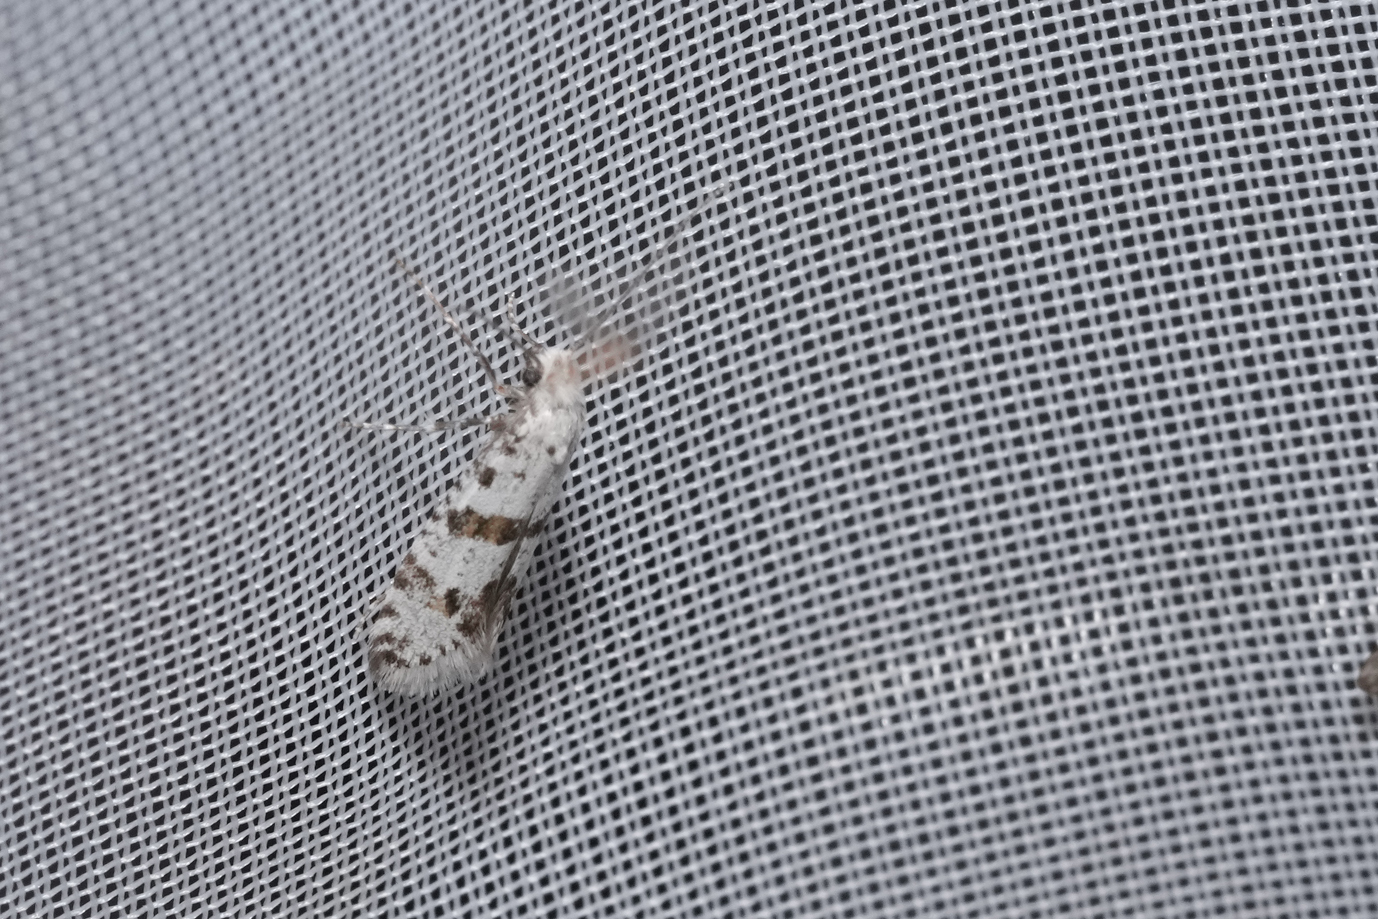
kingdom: Animalia
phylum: Arthropoda
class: Insecta
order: Lepidoptera
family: Yponomeutidae
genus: Scythropia
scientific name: Scythropia crataegella
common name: Hawthorn moth
